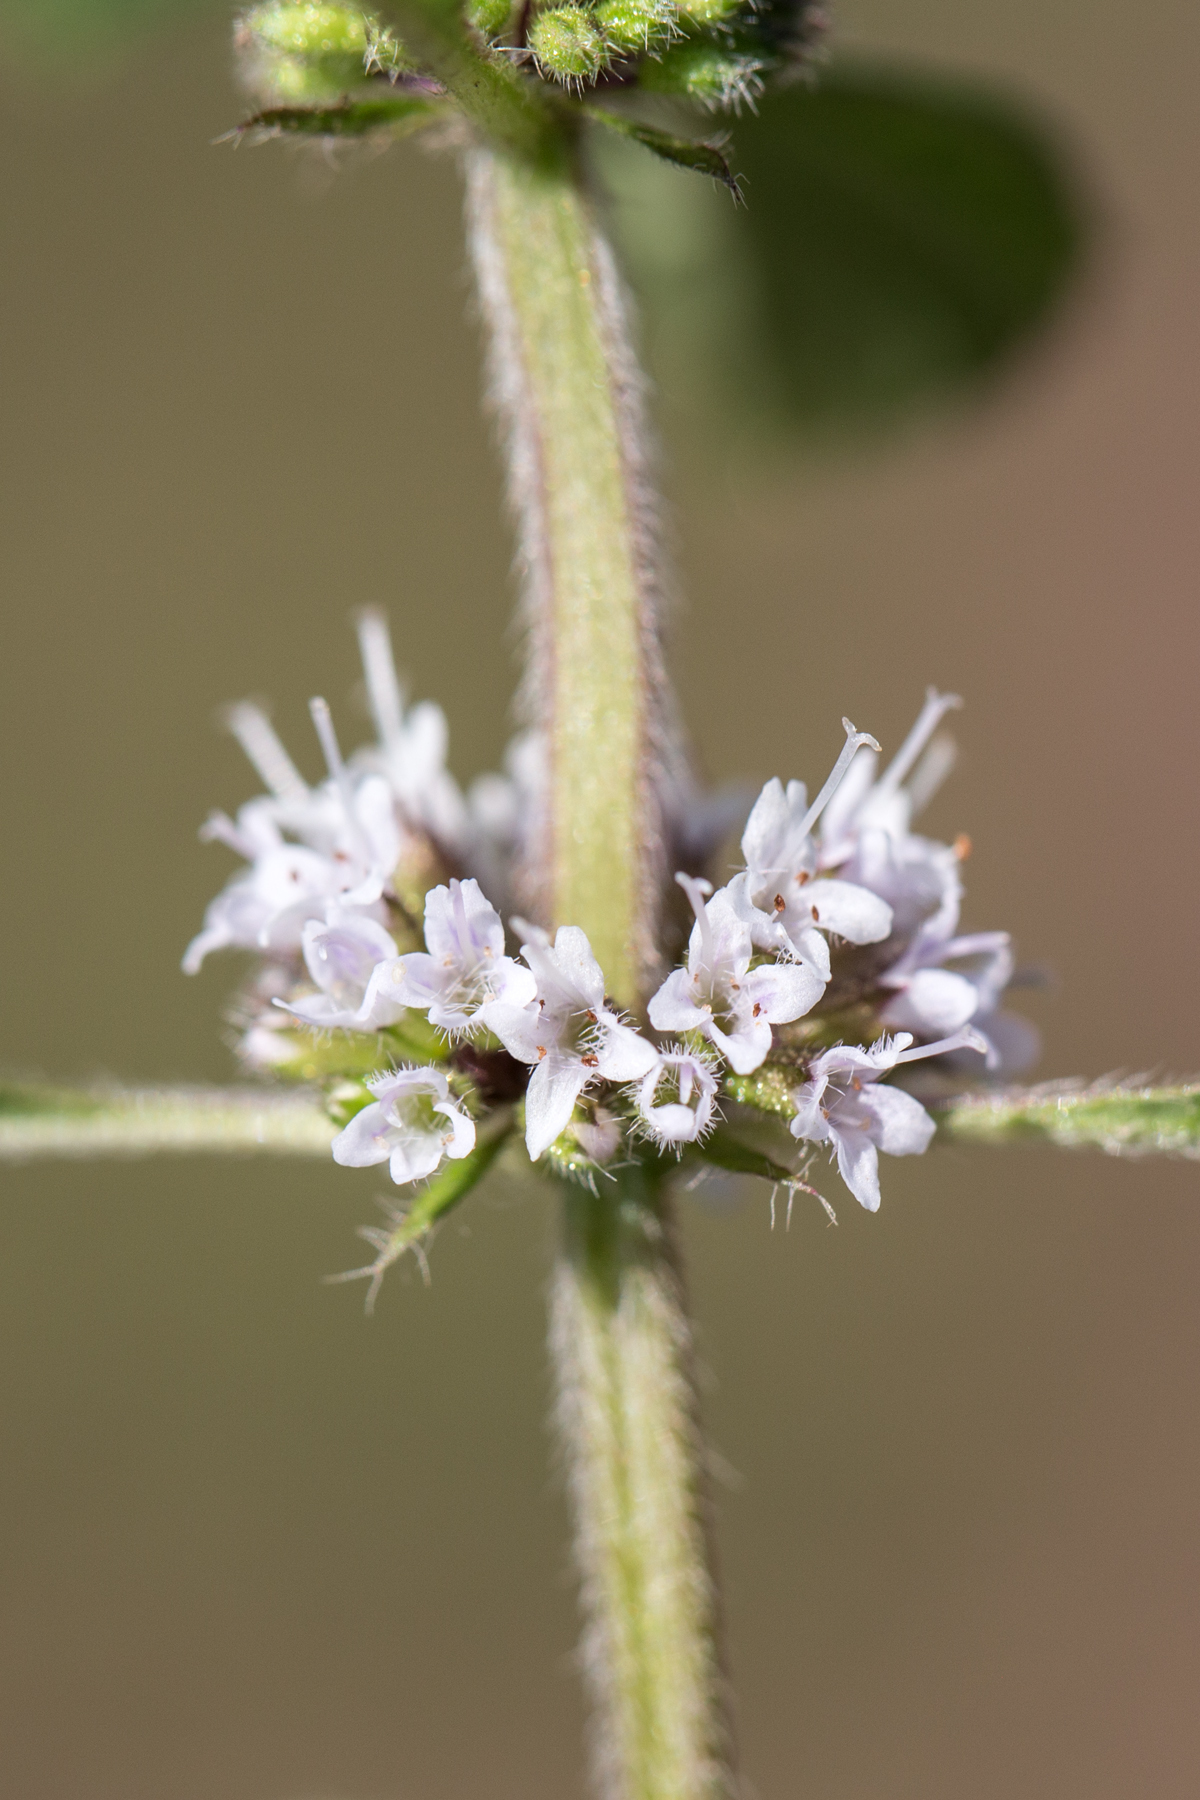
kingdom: Plantae
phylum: Tracheophyta
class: Magnoliopsida
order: Lamiales
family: Lamiaceae
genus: Mentha
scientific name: Mentha arvensis
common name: Corn mint
